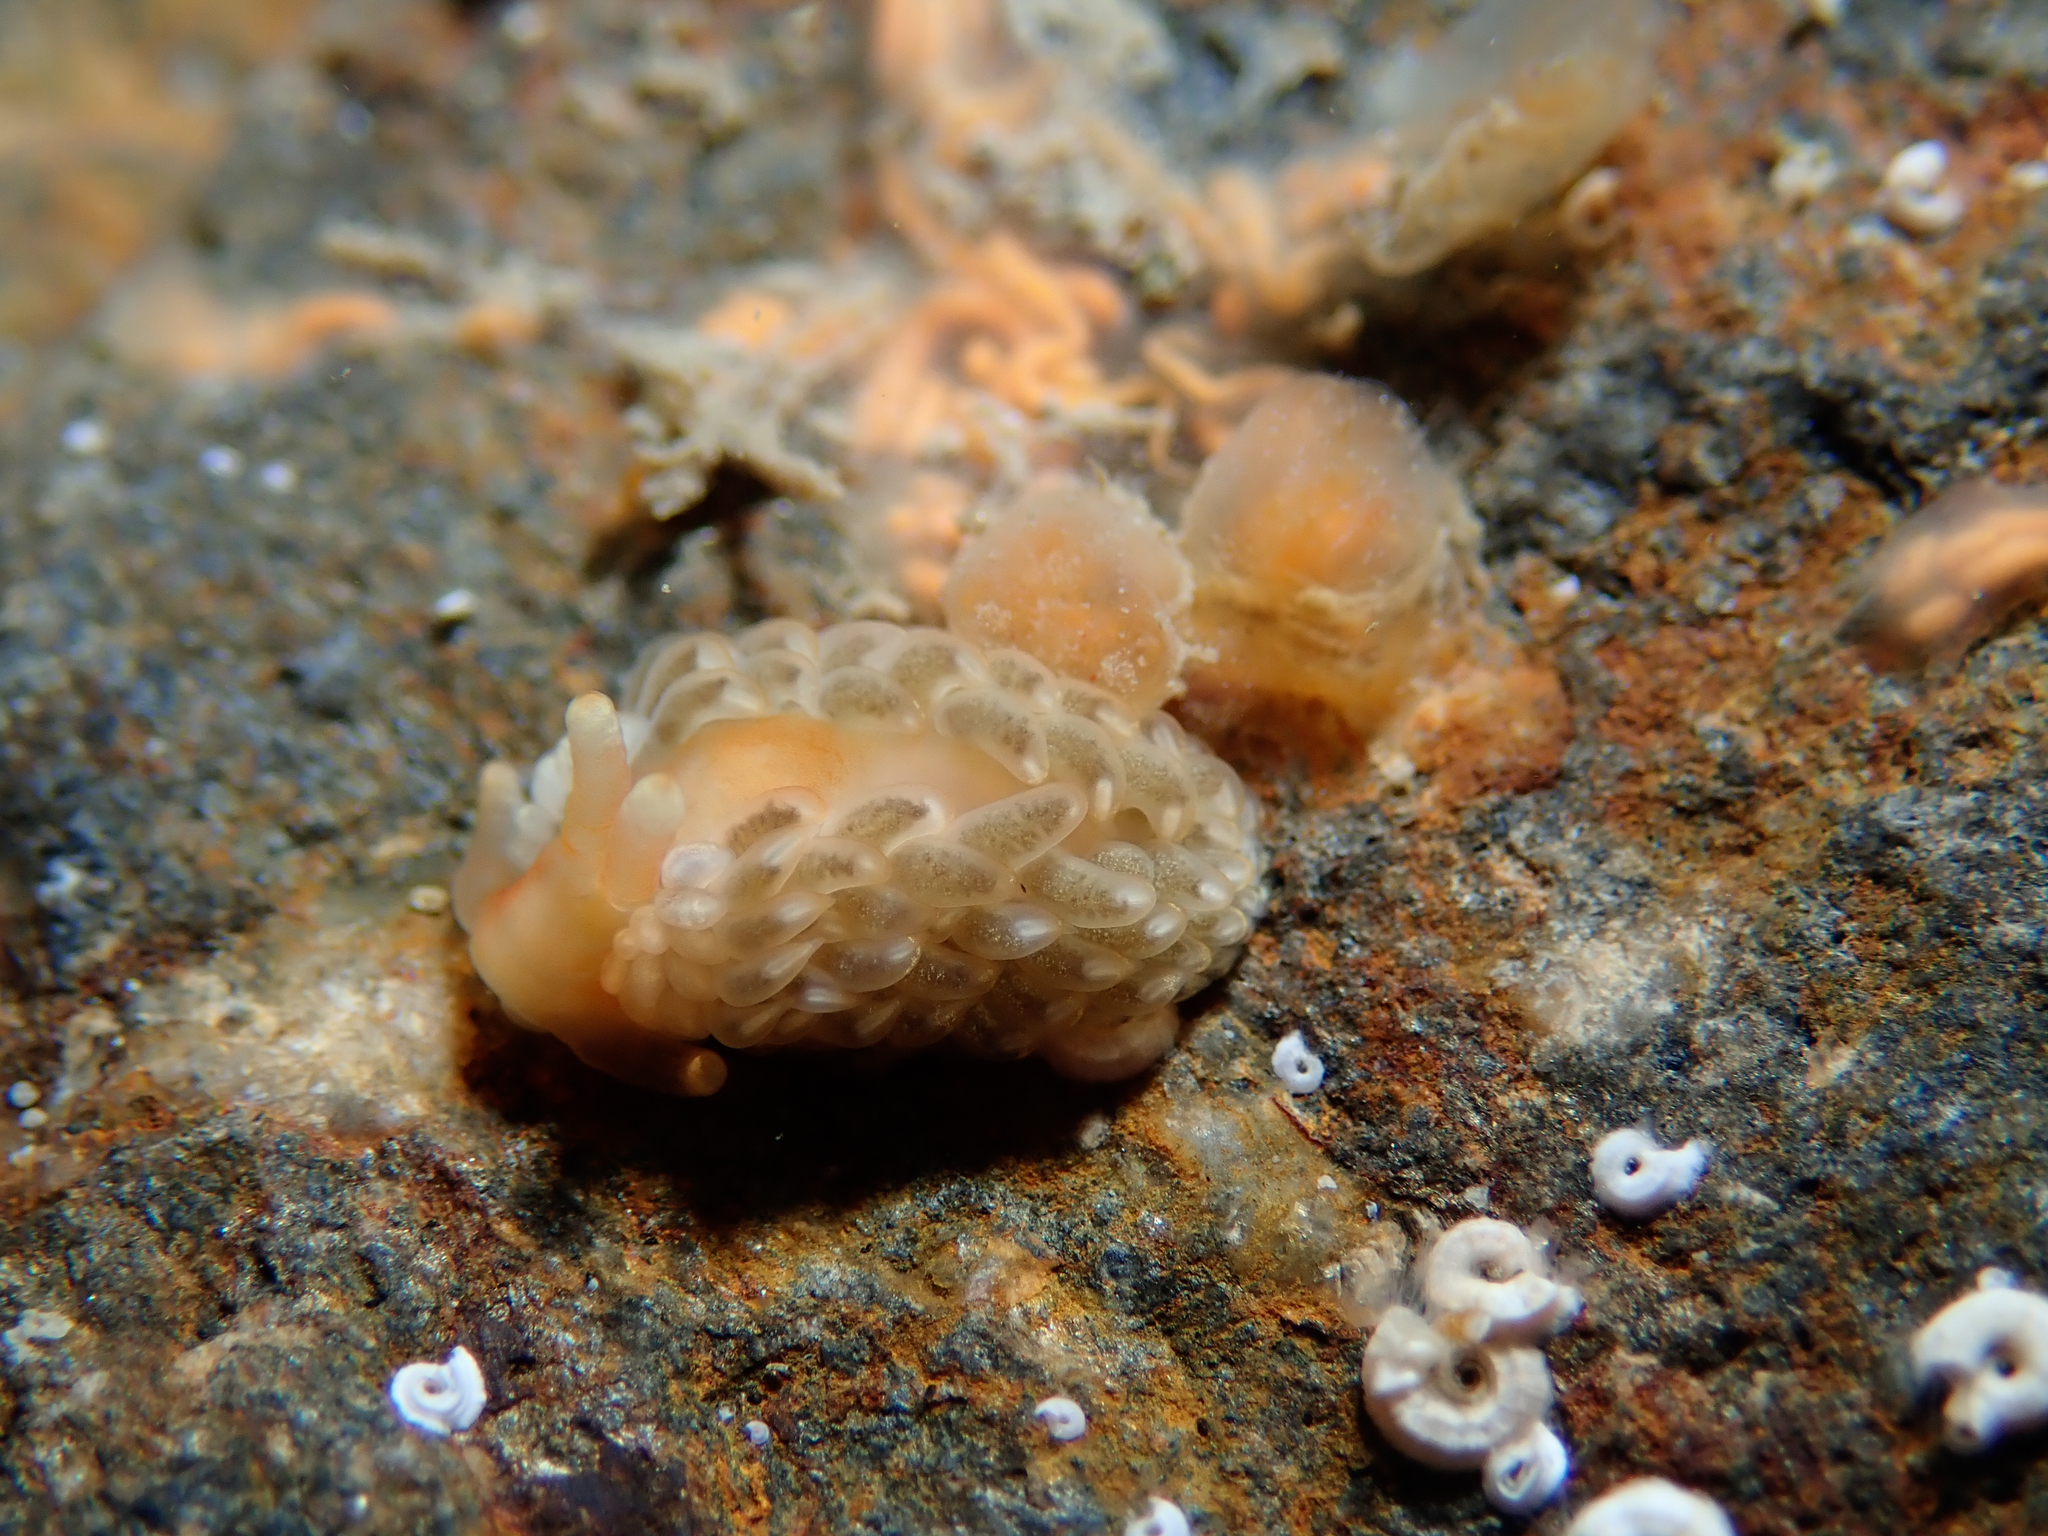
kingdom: Animalia
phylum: Mollusca
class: Gastropoda
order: Nudibranchia
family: Aeolidiidae
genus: Aeolidiella
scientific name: Aeolidiella alderi
